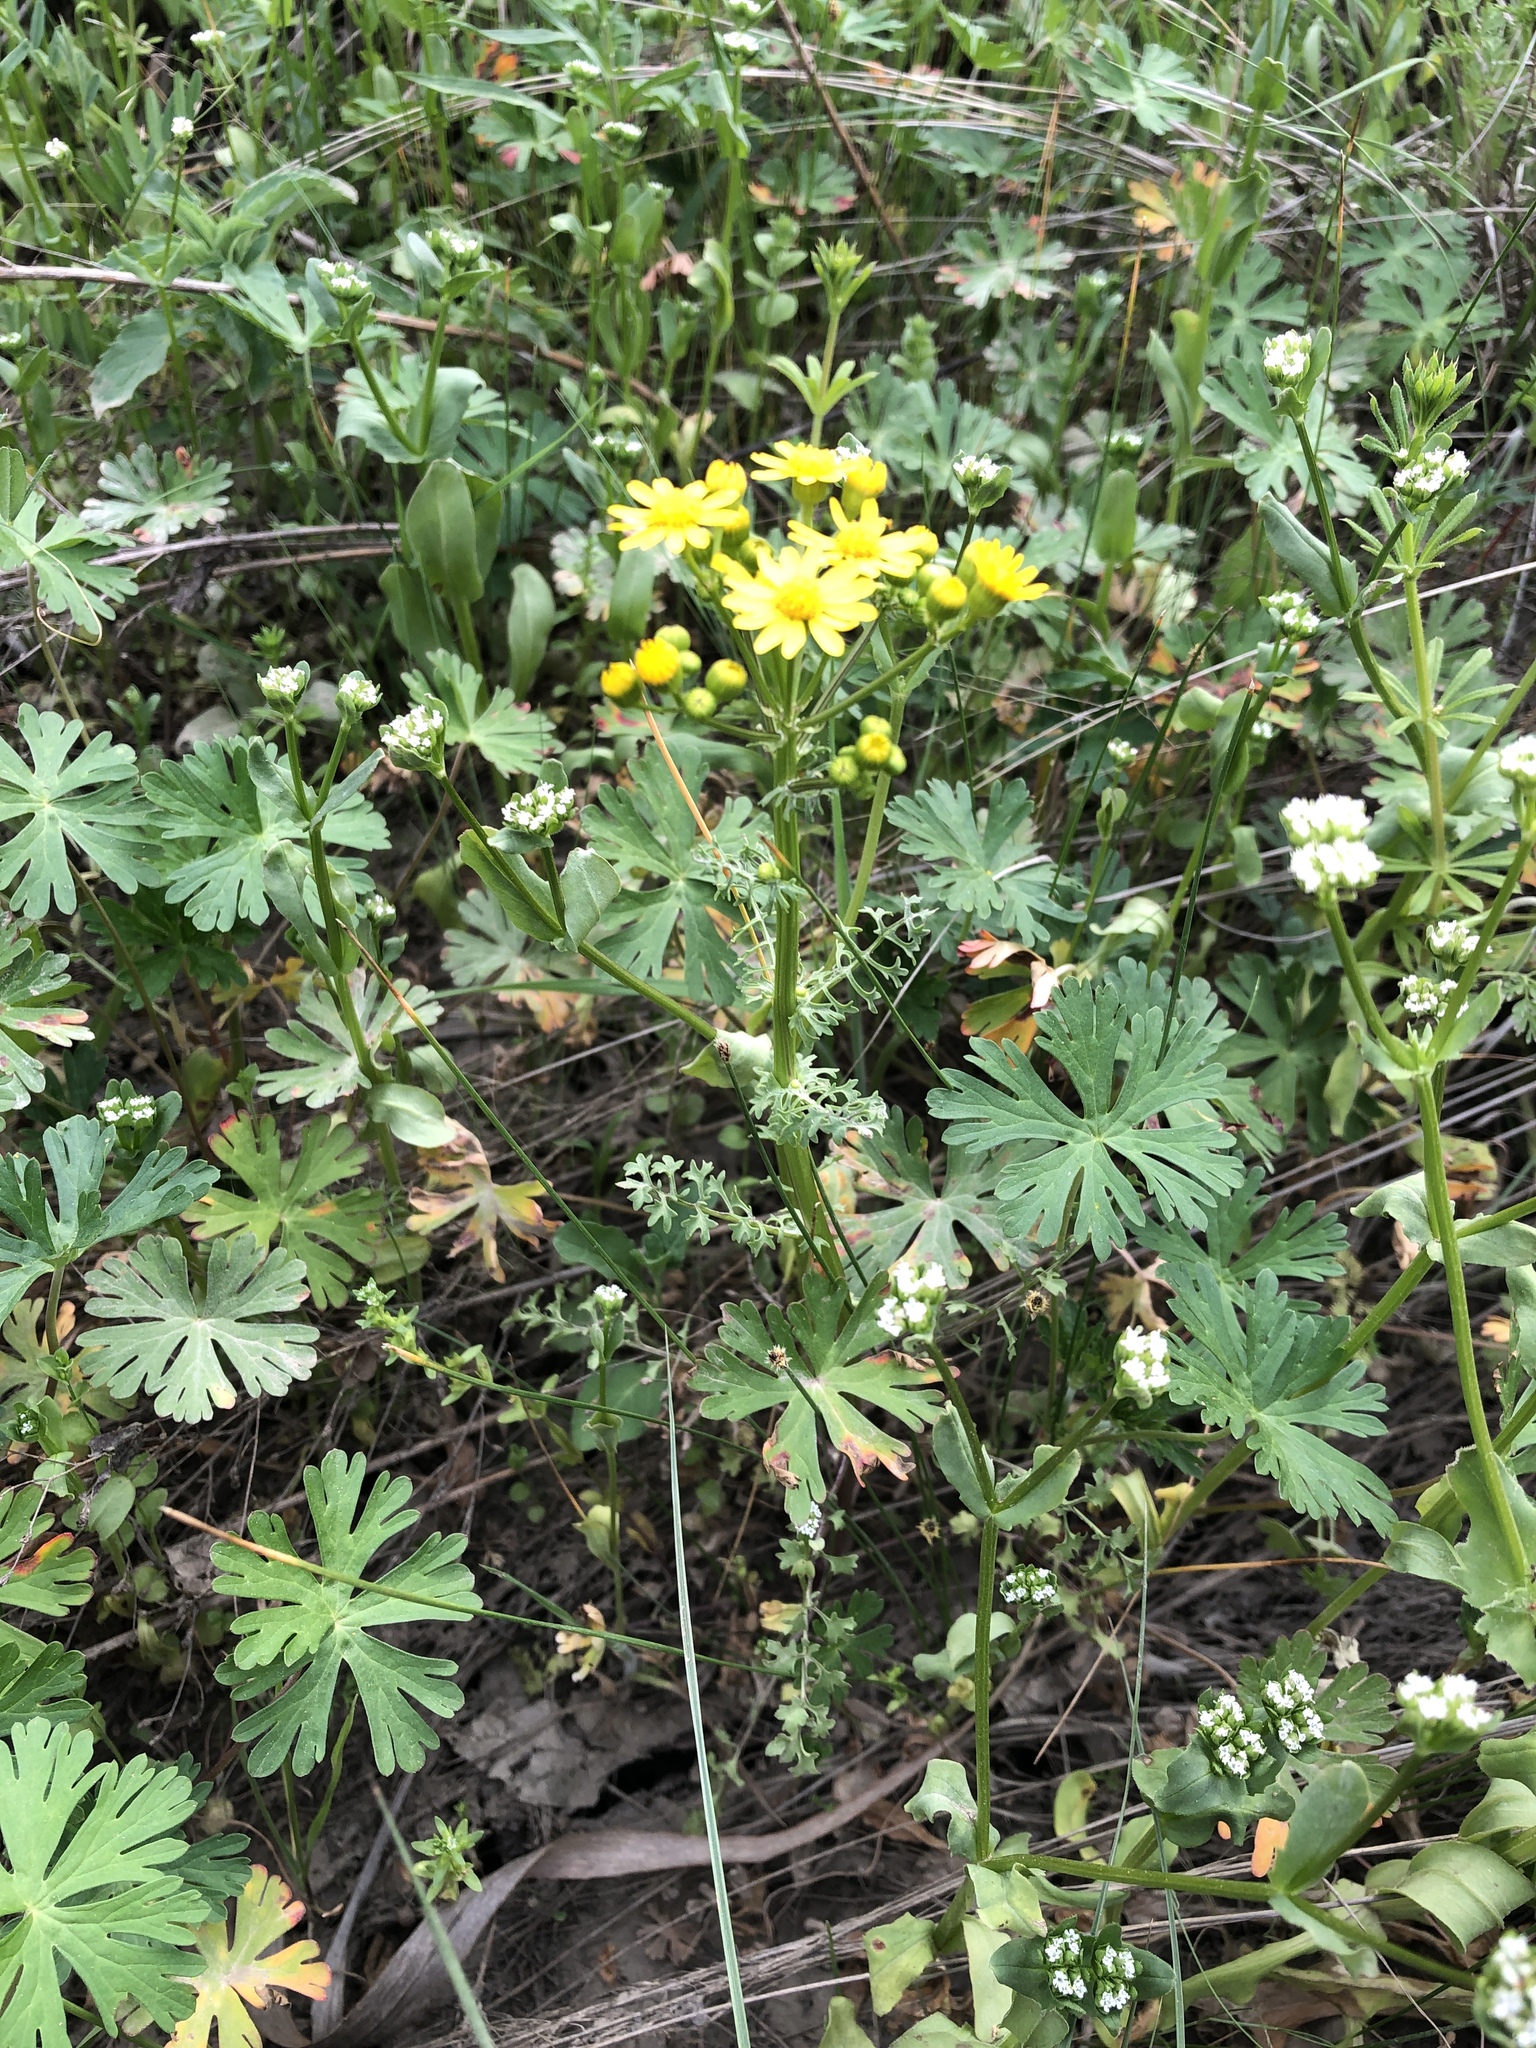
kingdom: Plantae
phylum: Tracheophyta
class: Magnoliopsida
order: Asterales
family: Asteraceae
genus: Packera
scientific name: Packera tampicana
